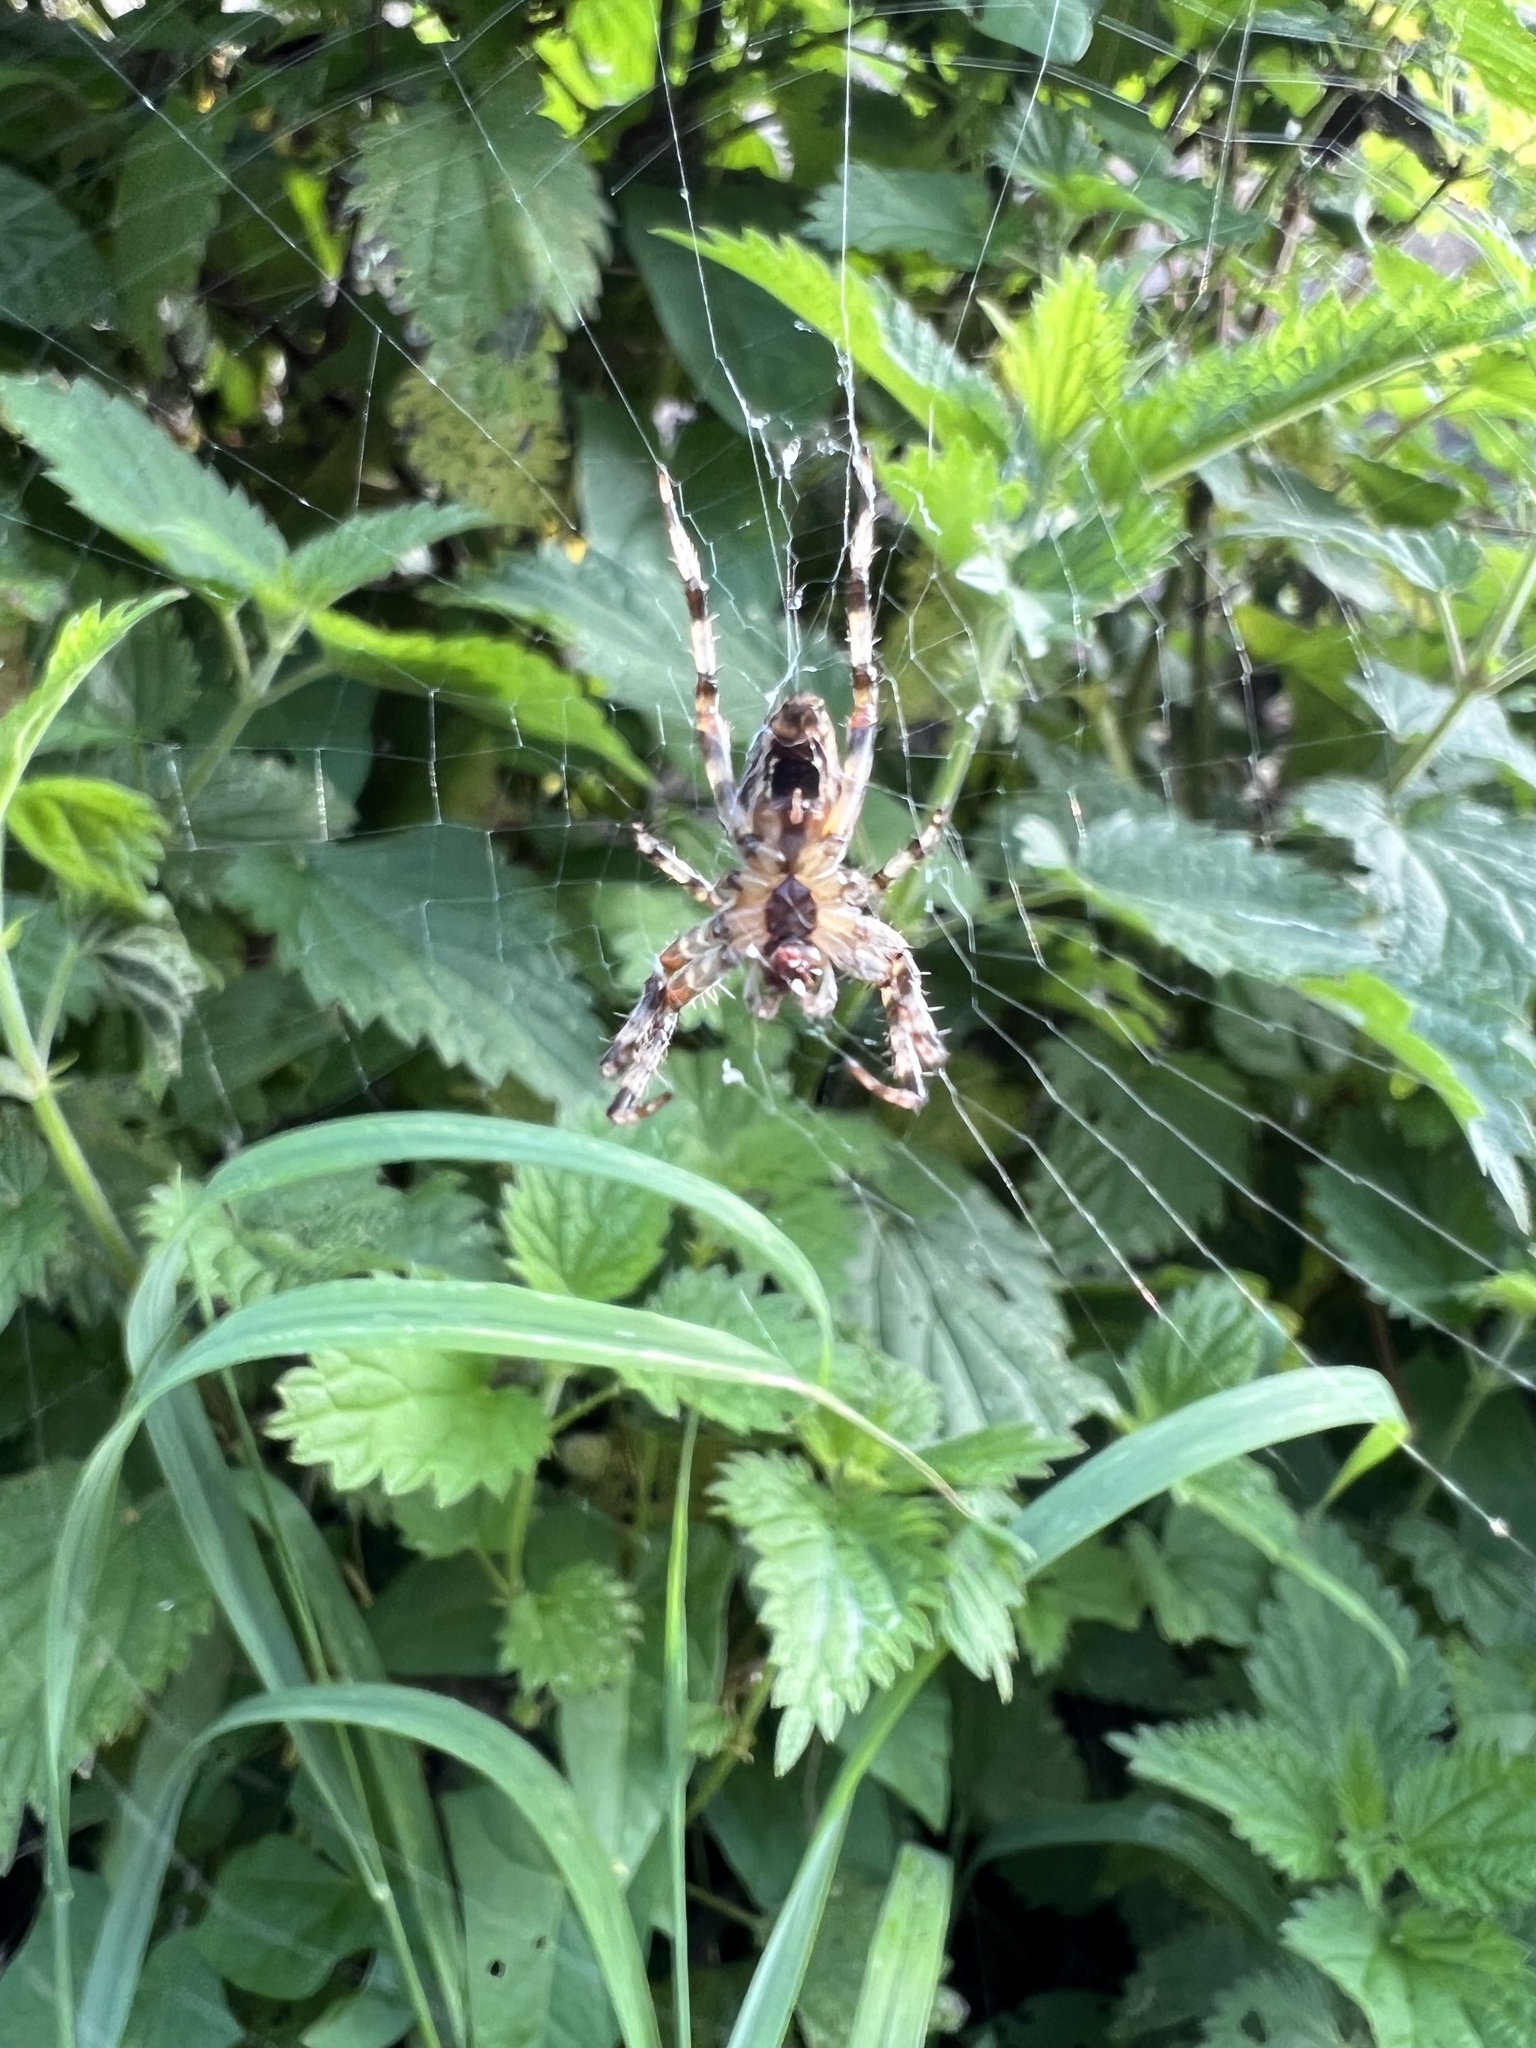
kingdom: Animalia
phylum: Arthropoda
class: Arachnida
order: Araneae
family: Araneidae
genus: Araneus
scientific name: Araneus diadematus
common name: Cross orbweaver
